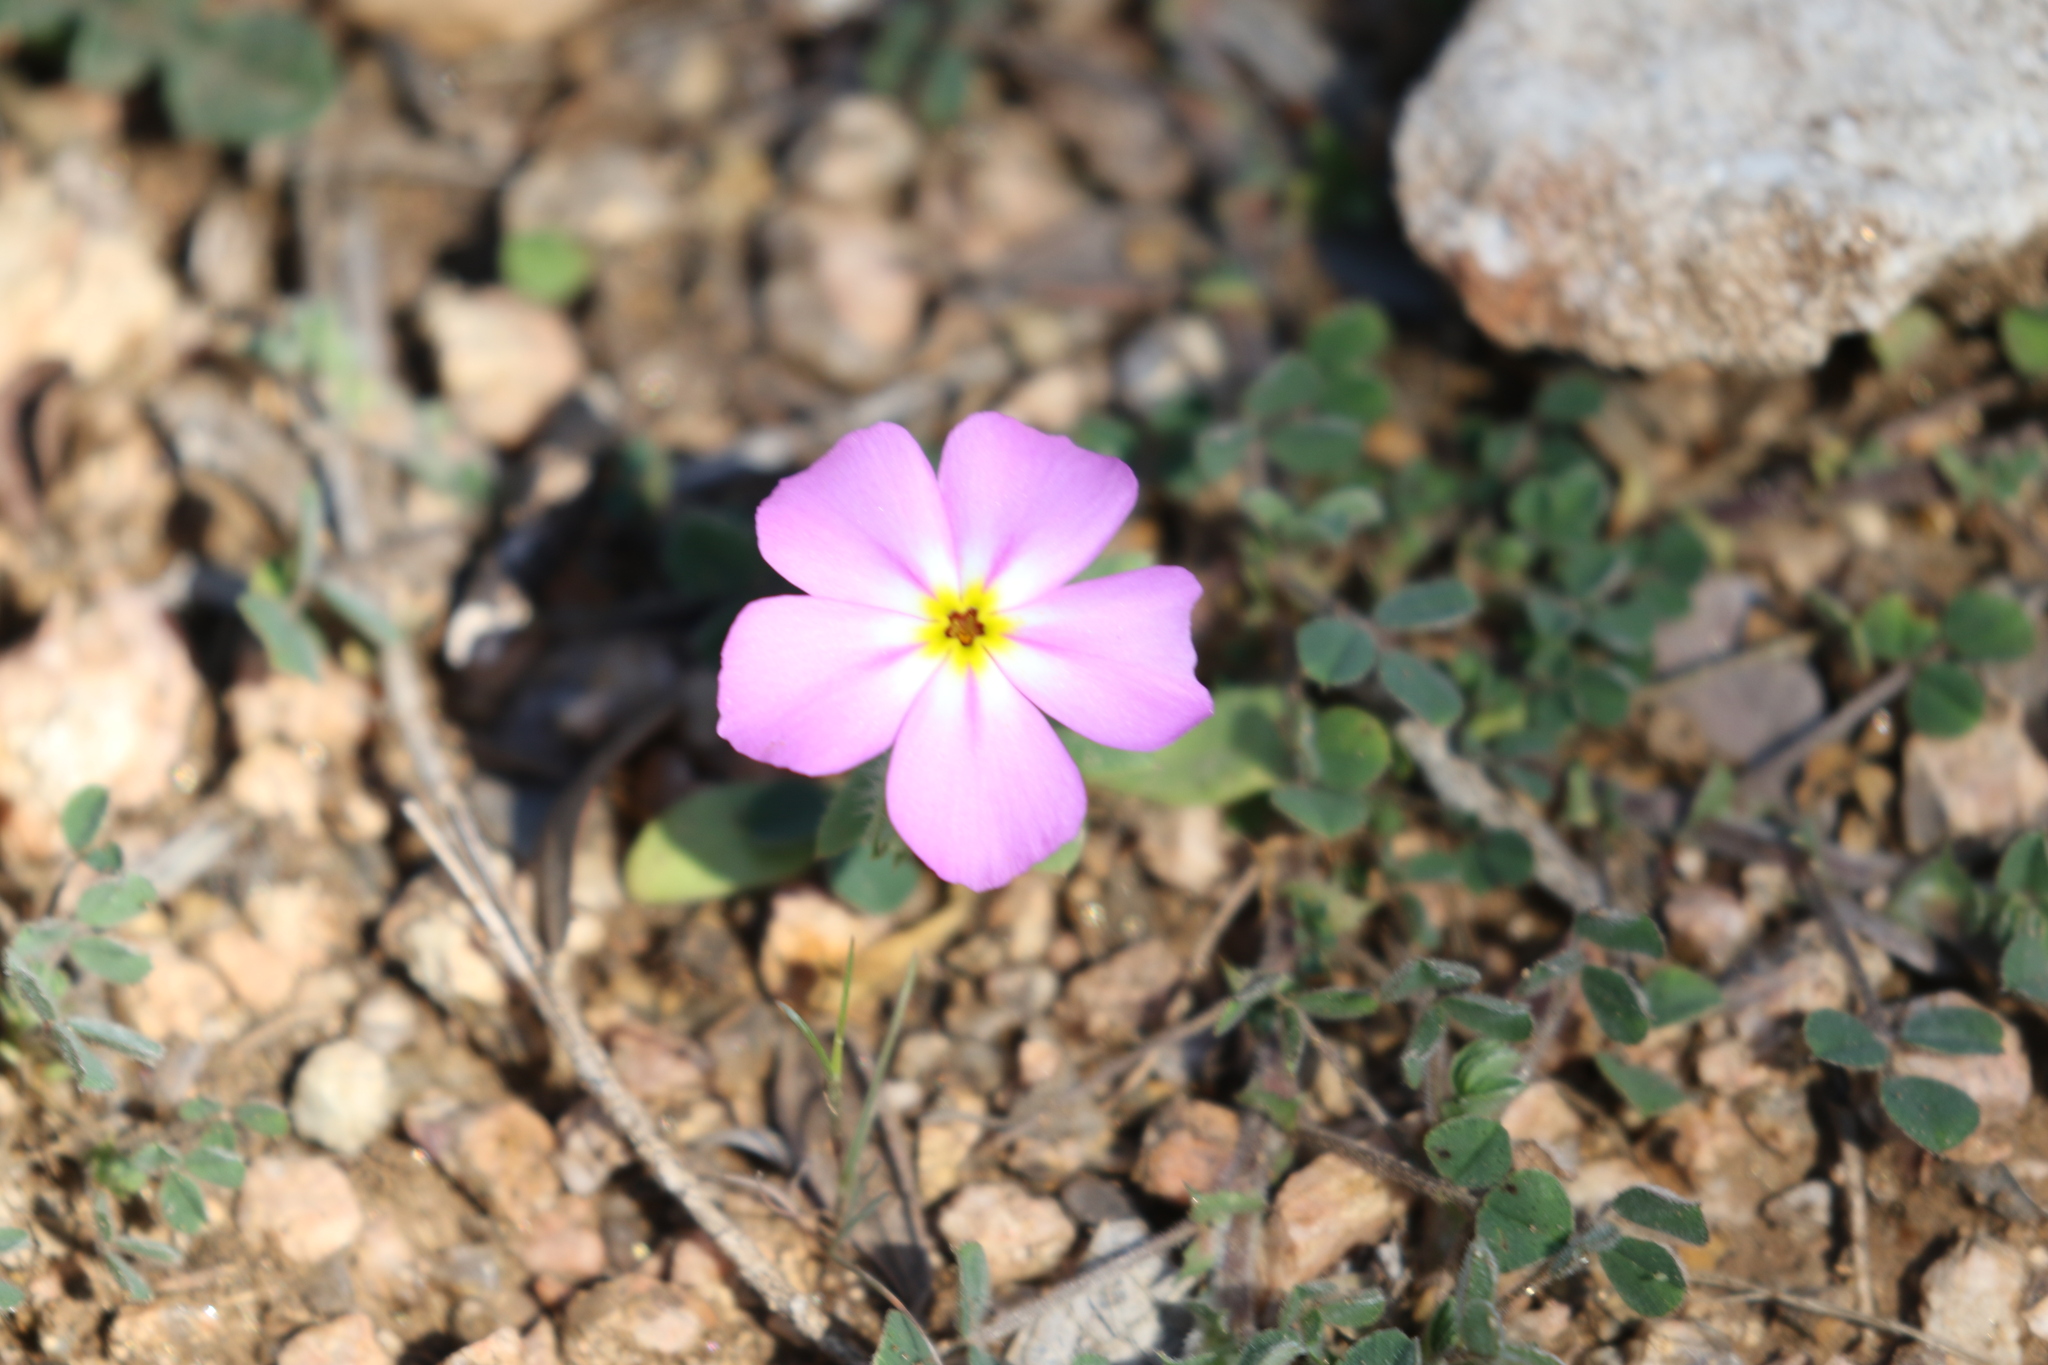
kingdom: Plantae
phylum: Tracheophyta
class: Magnoliopsida
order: Ericales
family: Polemoniaceae
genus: Phlox
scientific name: Phlox roemeriana
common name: Roemer's phlox
